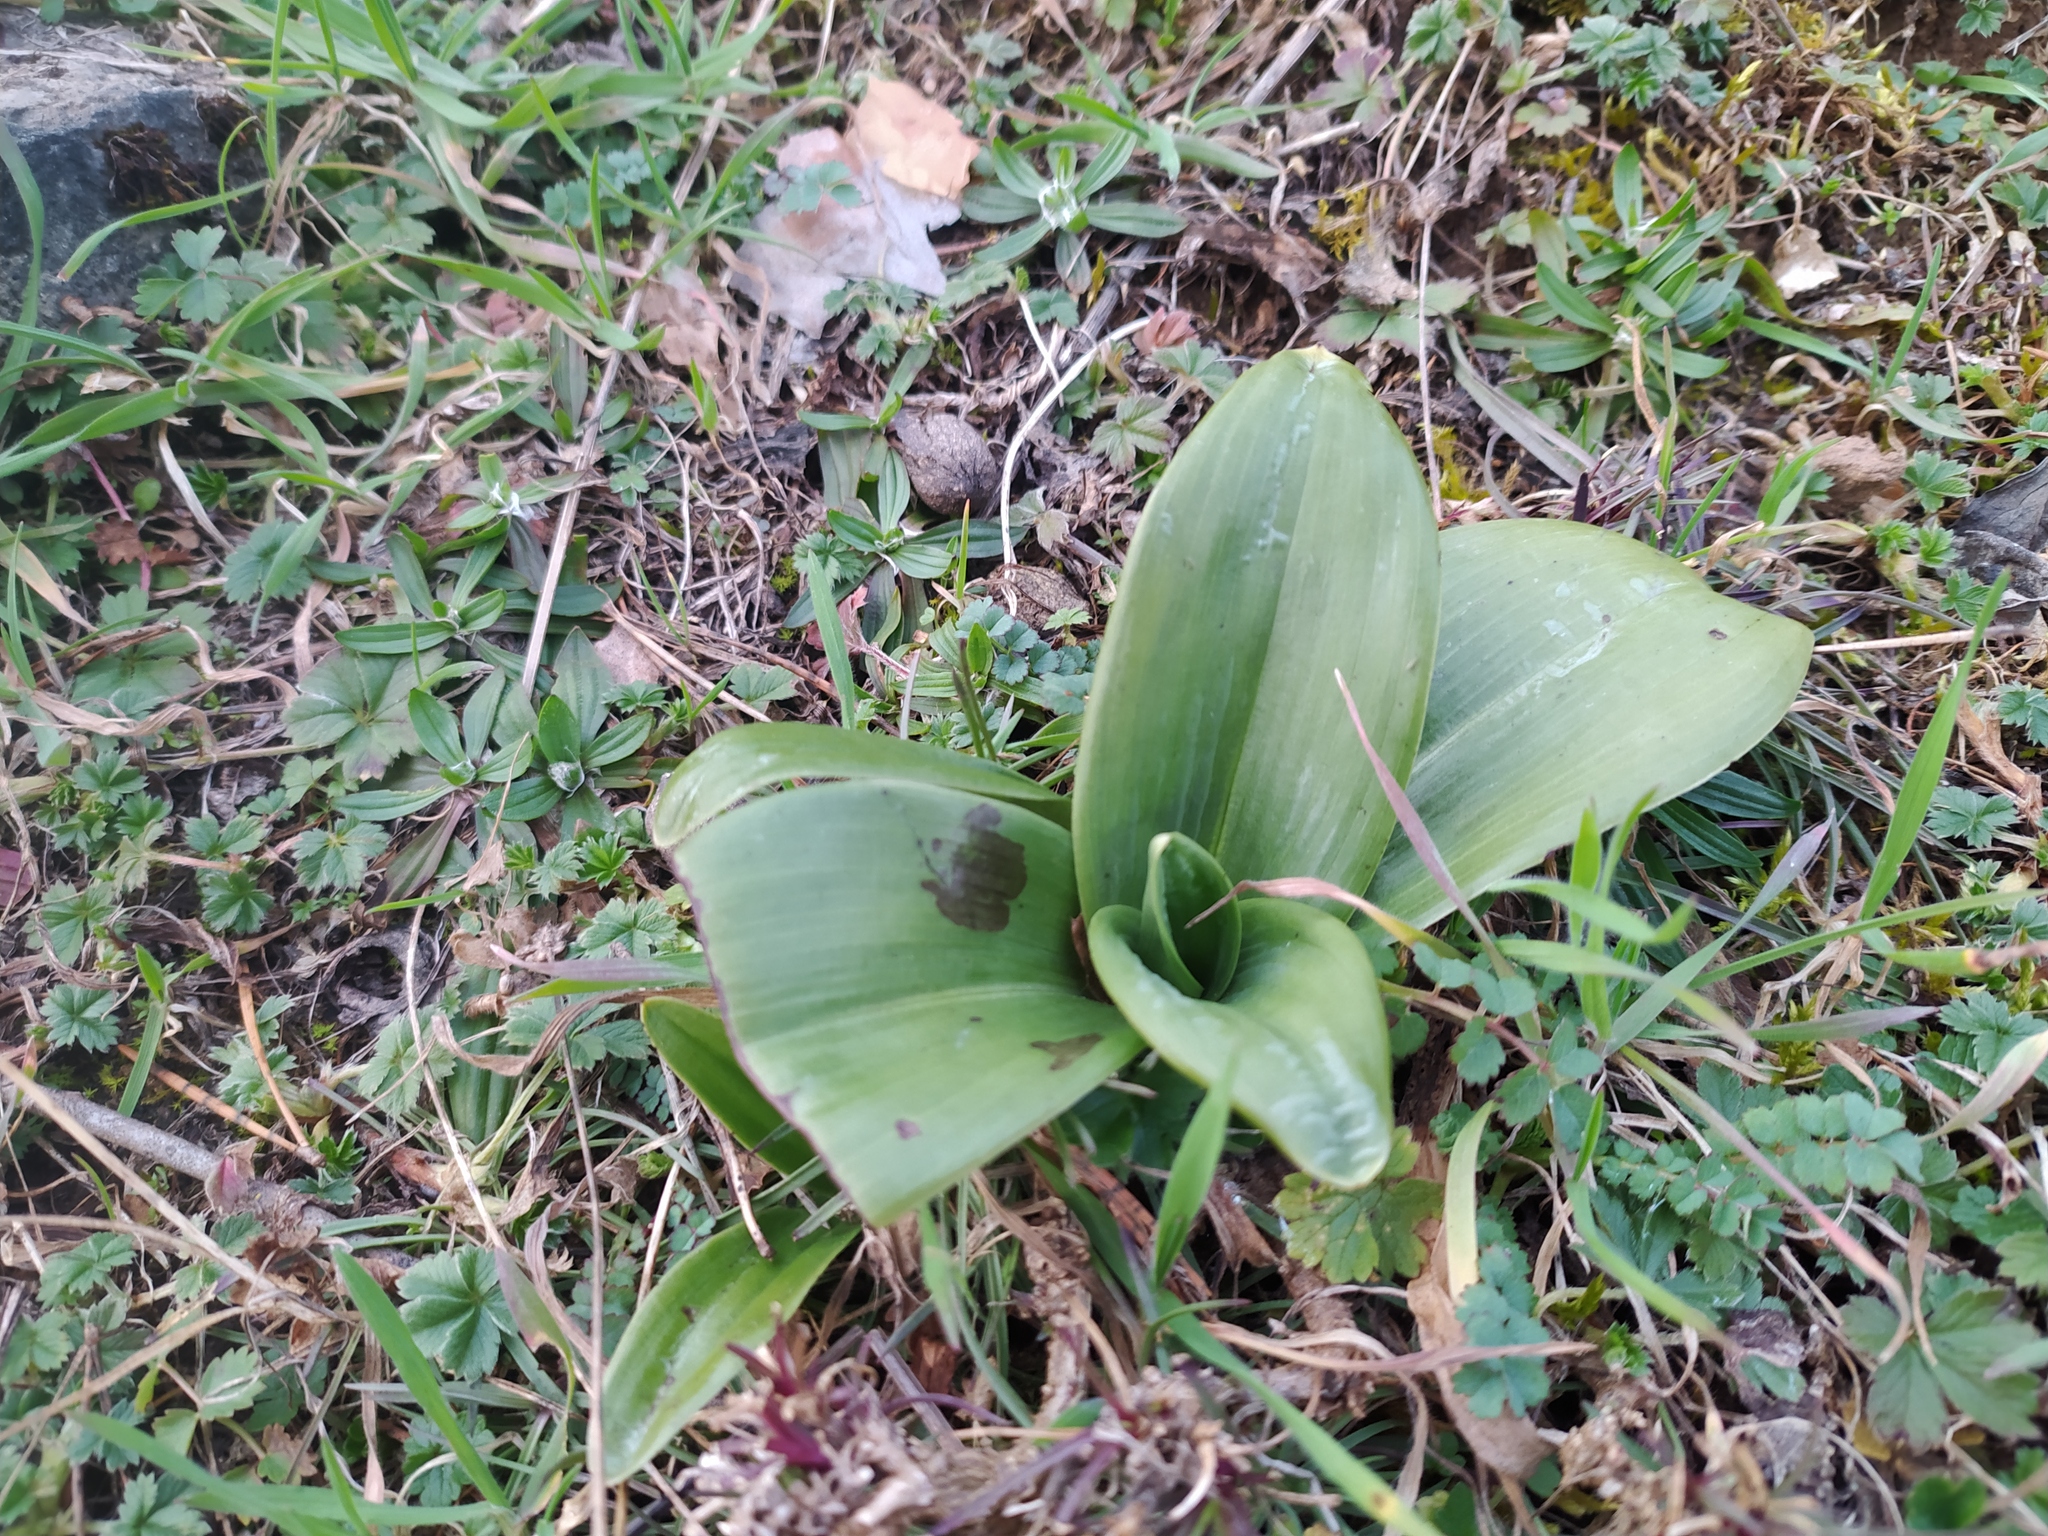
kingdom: Plantae
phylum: Tracheophyta
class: Liliopsida
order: Asparagales
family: Orchidaceae
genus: Himantoglossum
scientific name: Himantoglossum hircinum
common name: Lizard orchid
